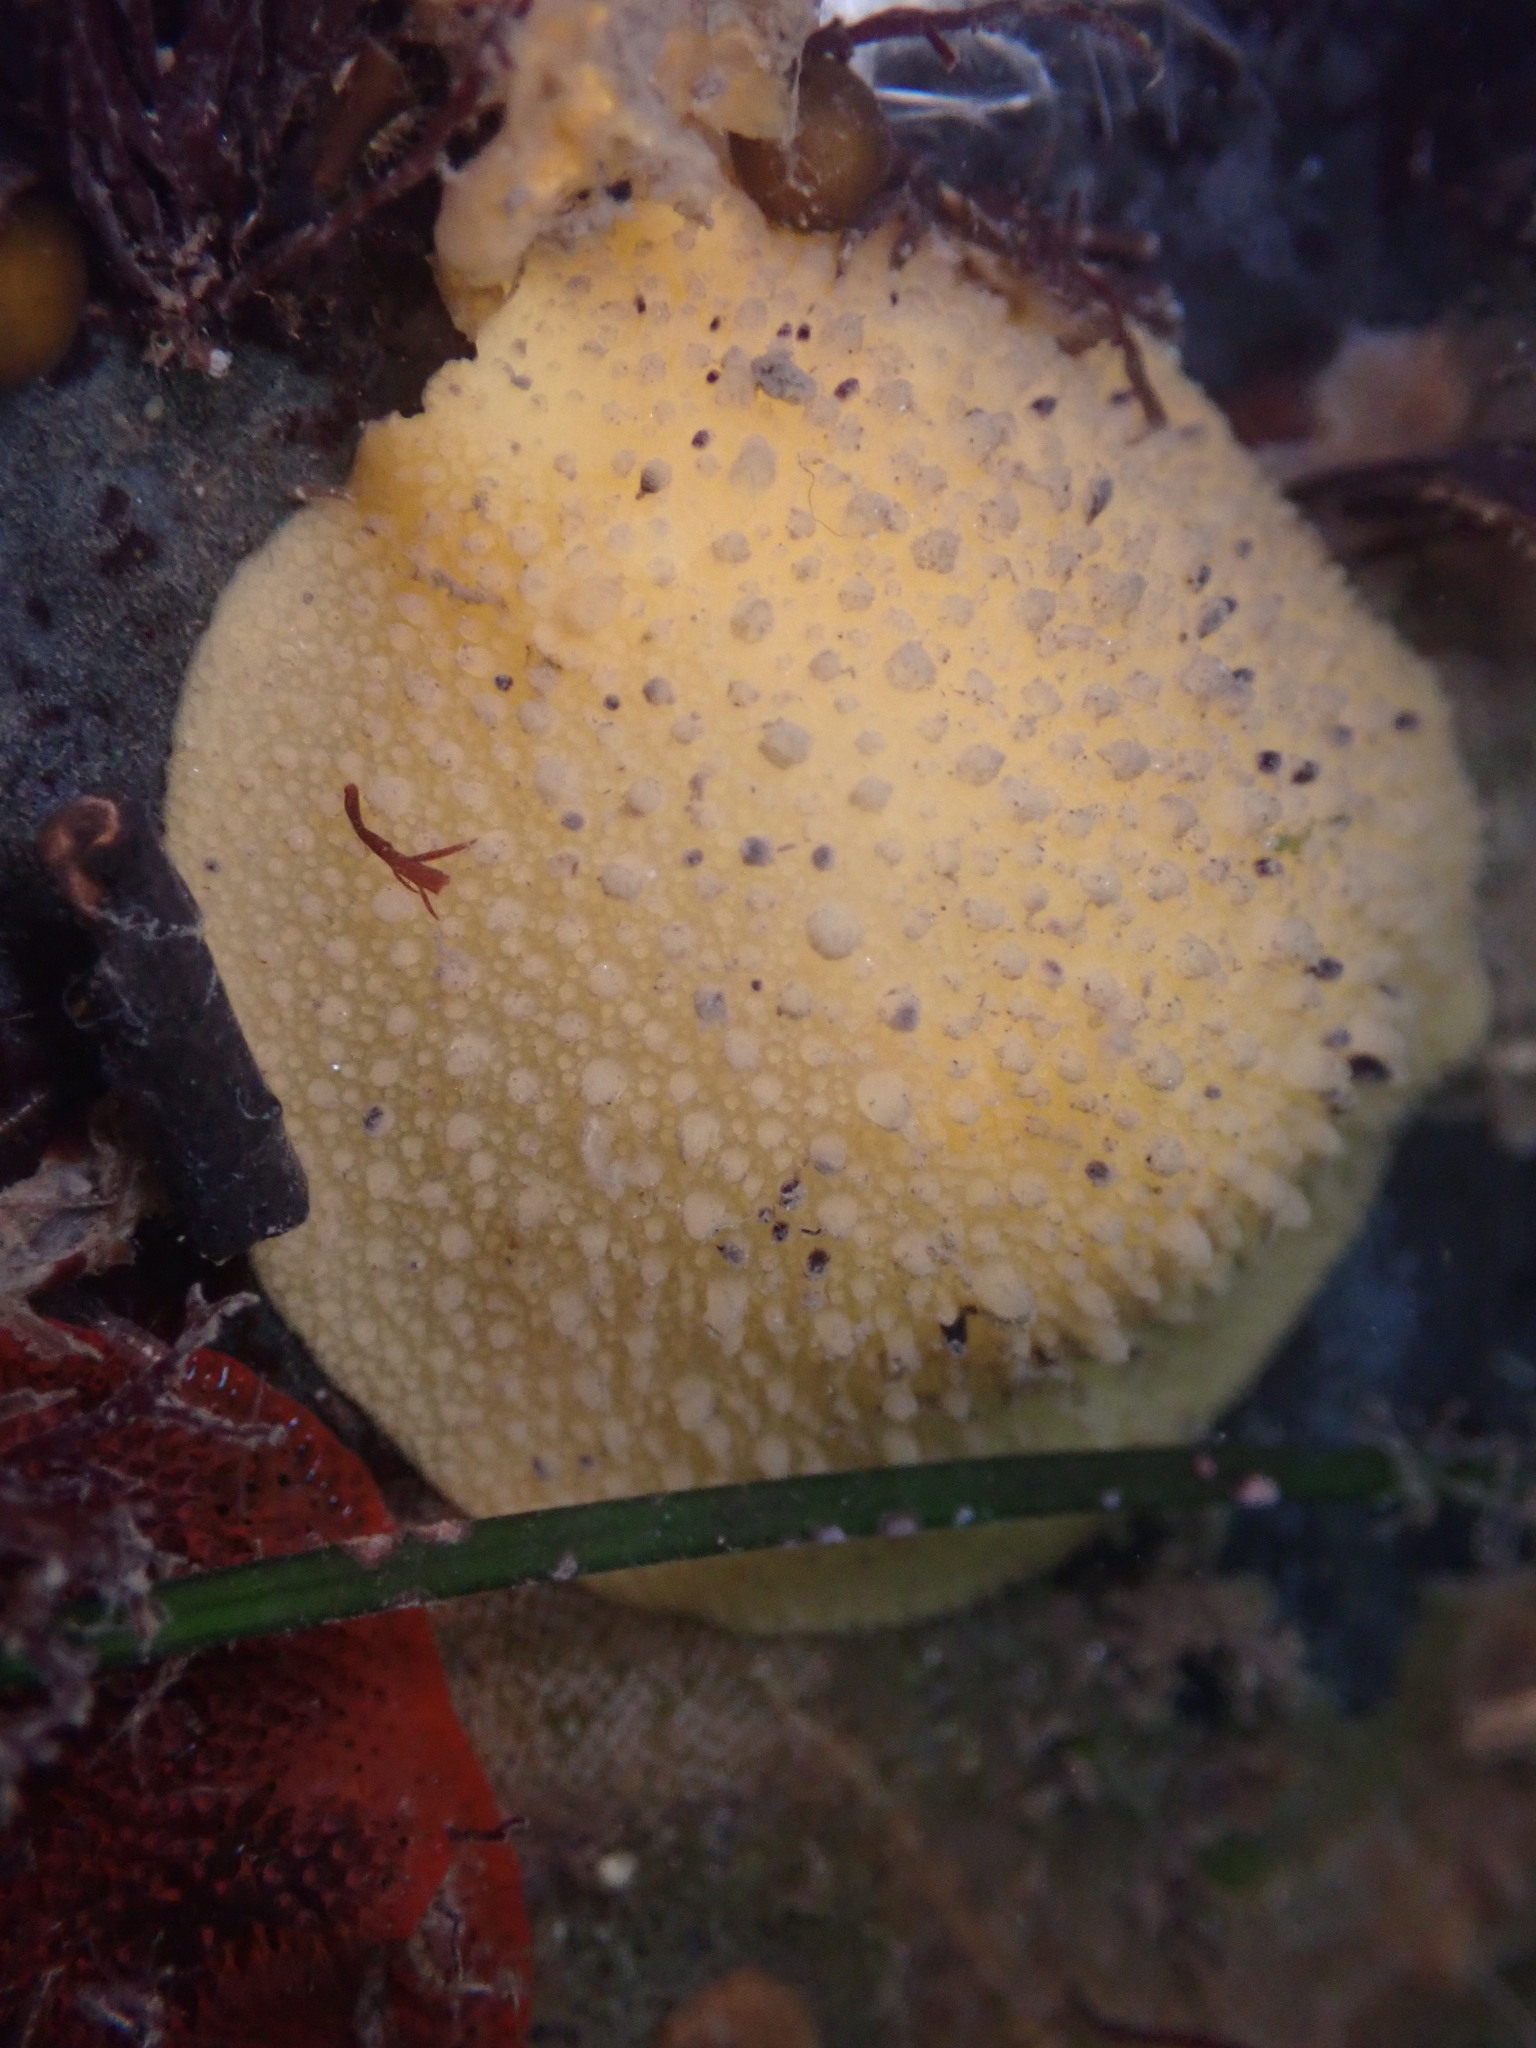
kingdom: Animalia
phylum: Mollusca
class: Gastropoda
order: Nudibranchia
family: Dorididae
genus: Doris
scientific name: Doris montereyensis
